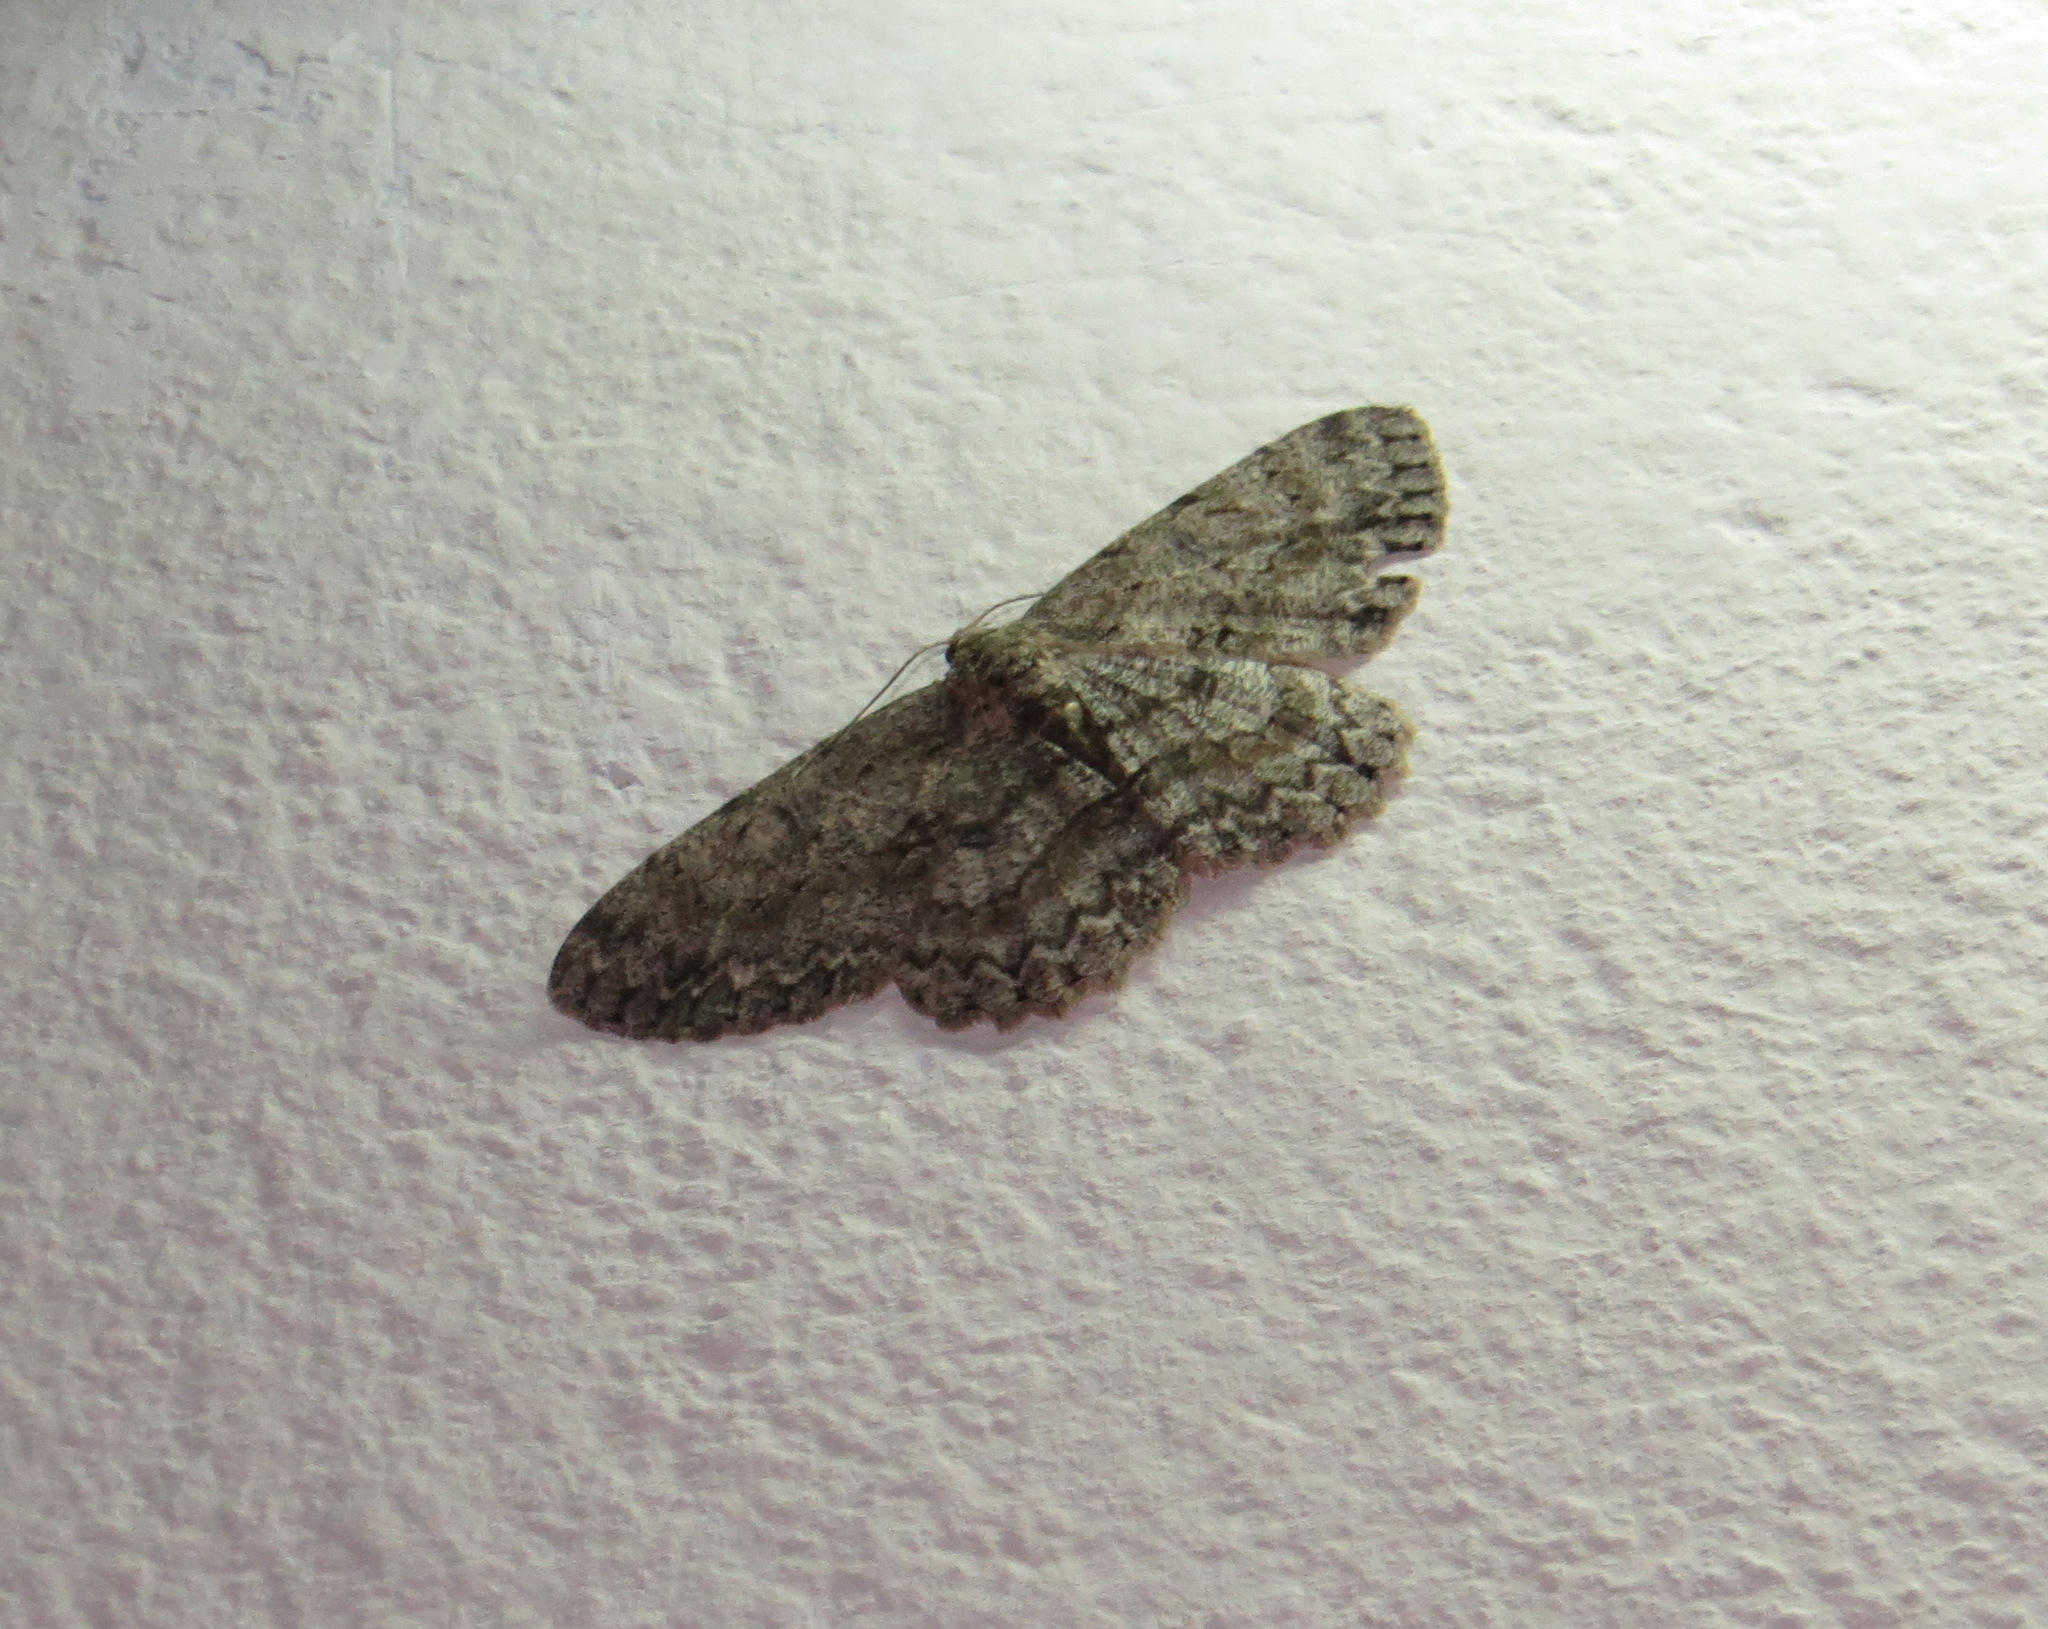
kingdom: Animalia
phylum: Arthropoda
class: Insecta
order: Lepidoptera
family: Geometridae
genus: Hypomecis
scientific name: Hypomecis punctinalis
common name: Pale oak beauty
